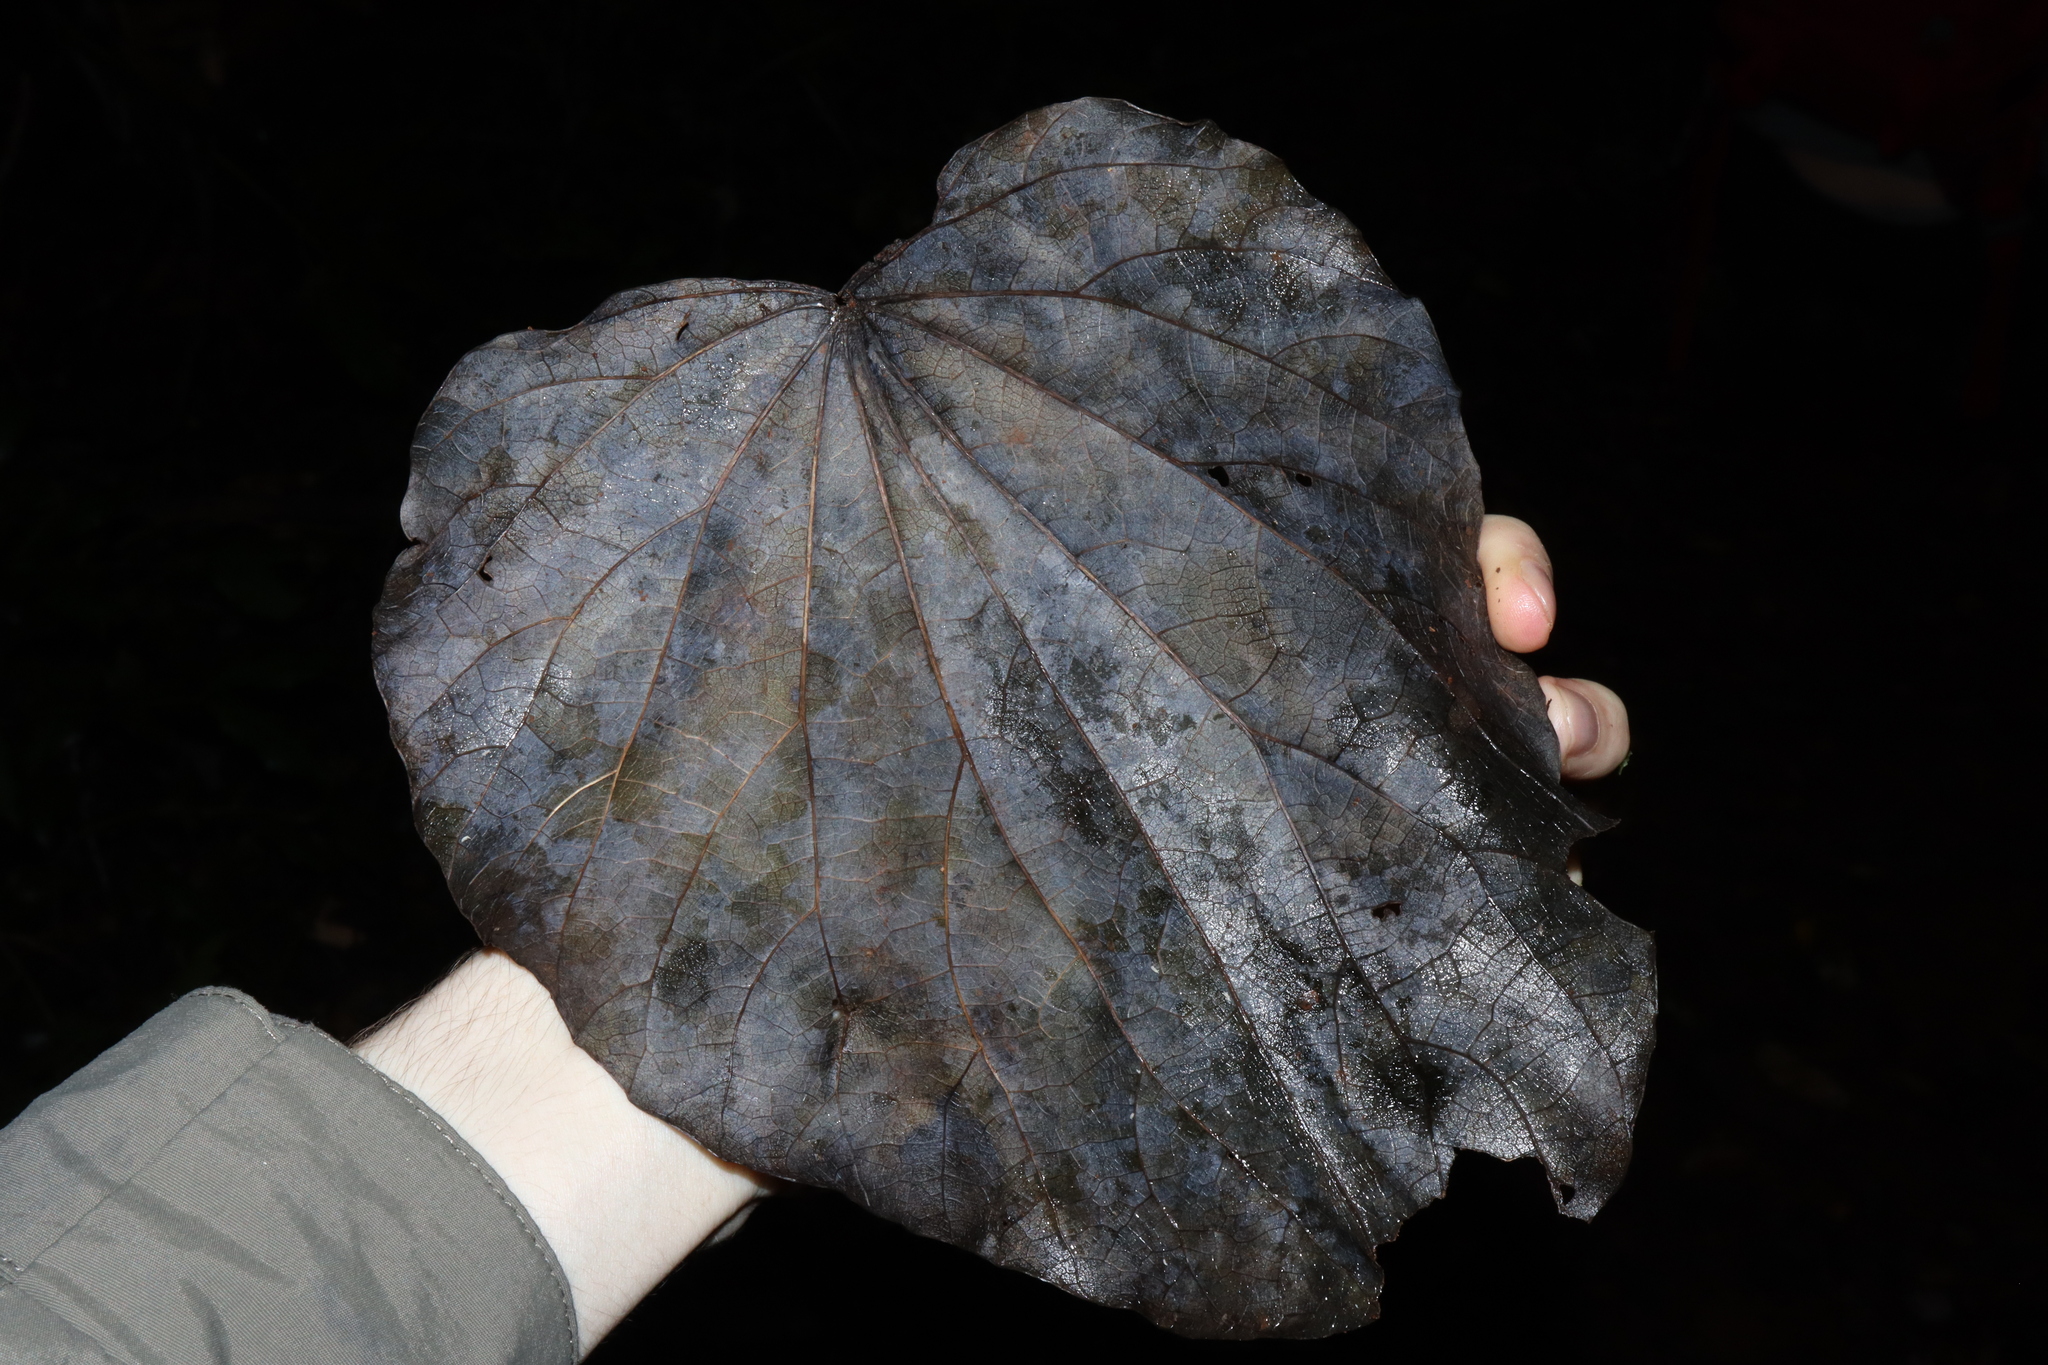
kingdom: Plantae
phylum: Tracheophyta
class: Magnoliopsida
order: Ranunculales
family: Menispermaceae
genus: Legnephora
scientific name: Legnephora moorei
